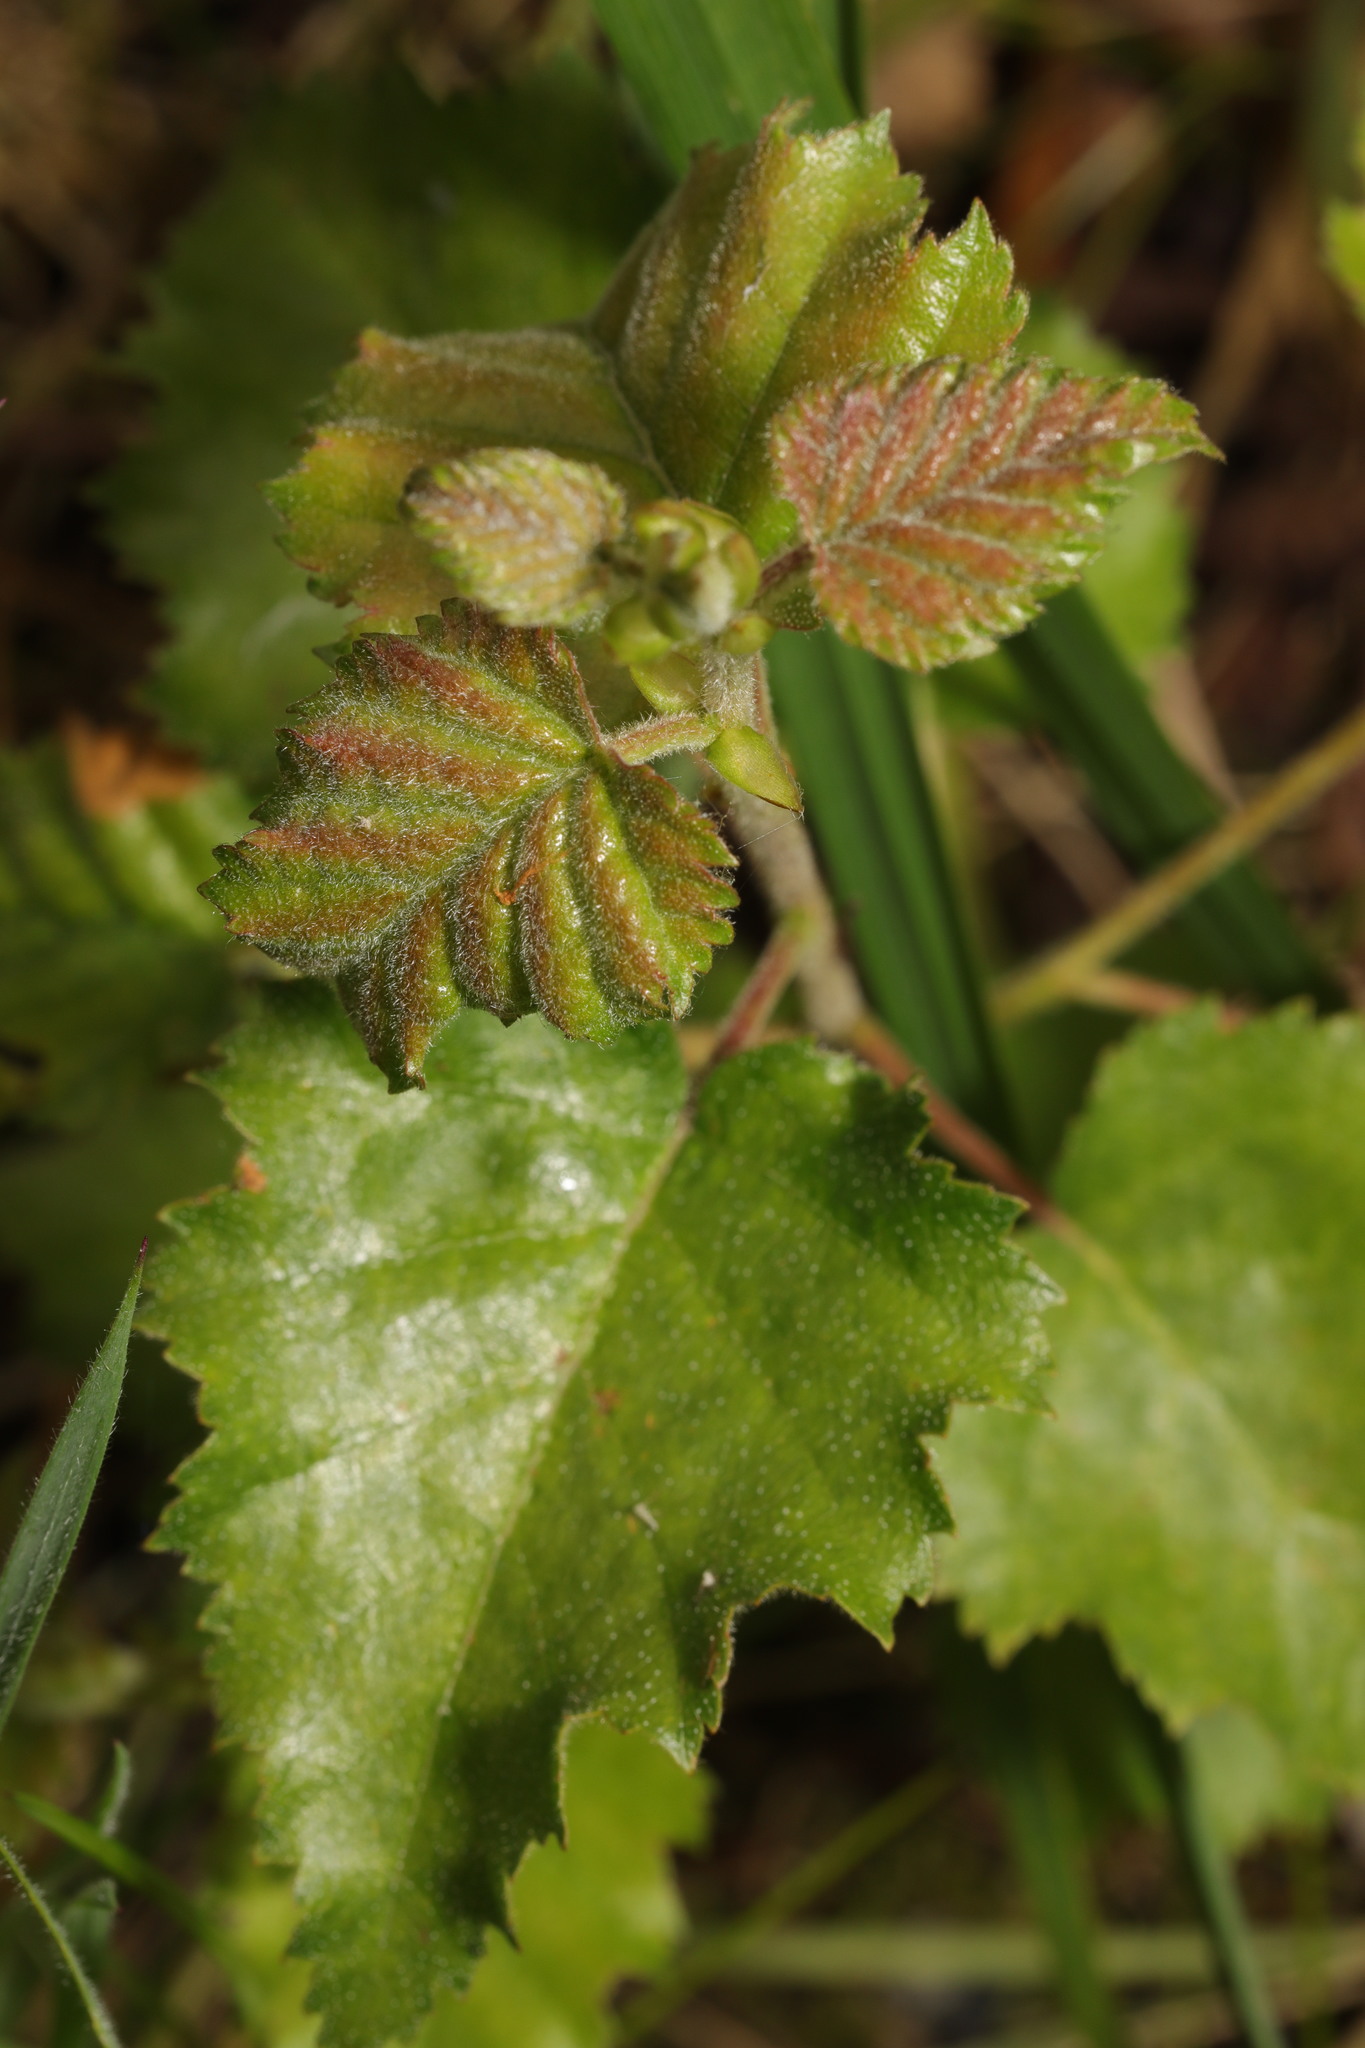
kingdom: Plantae
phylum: Tracheophyta
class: Magnoliopsida
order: Fagales
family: Betulaceae
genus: Betula
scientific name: Betula pubescens
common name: Downy birch
